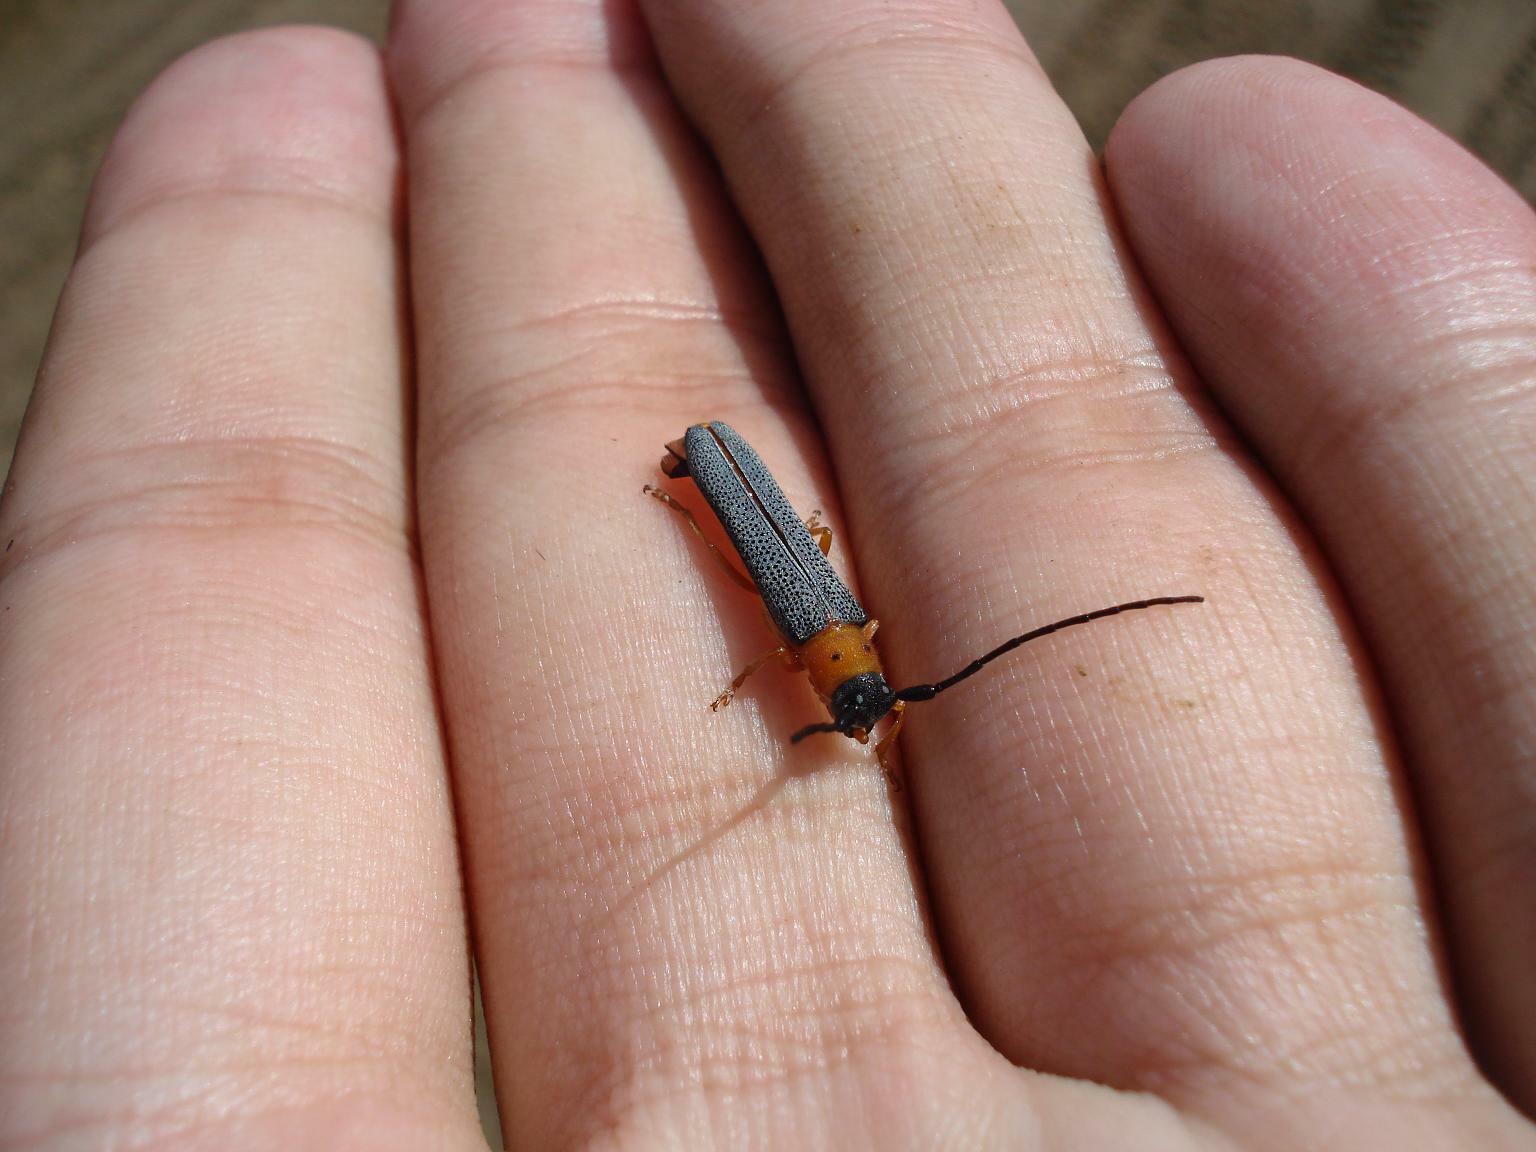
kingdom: Animalia
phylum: Arthropoda
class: Insecta
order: Coleoptera
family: Cerambycidae
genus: Oberea
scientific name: Oberea oculata
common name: Eyed longhorn beetle
